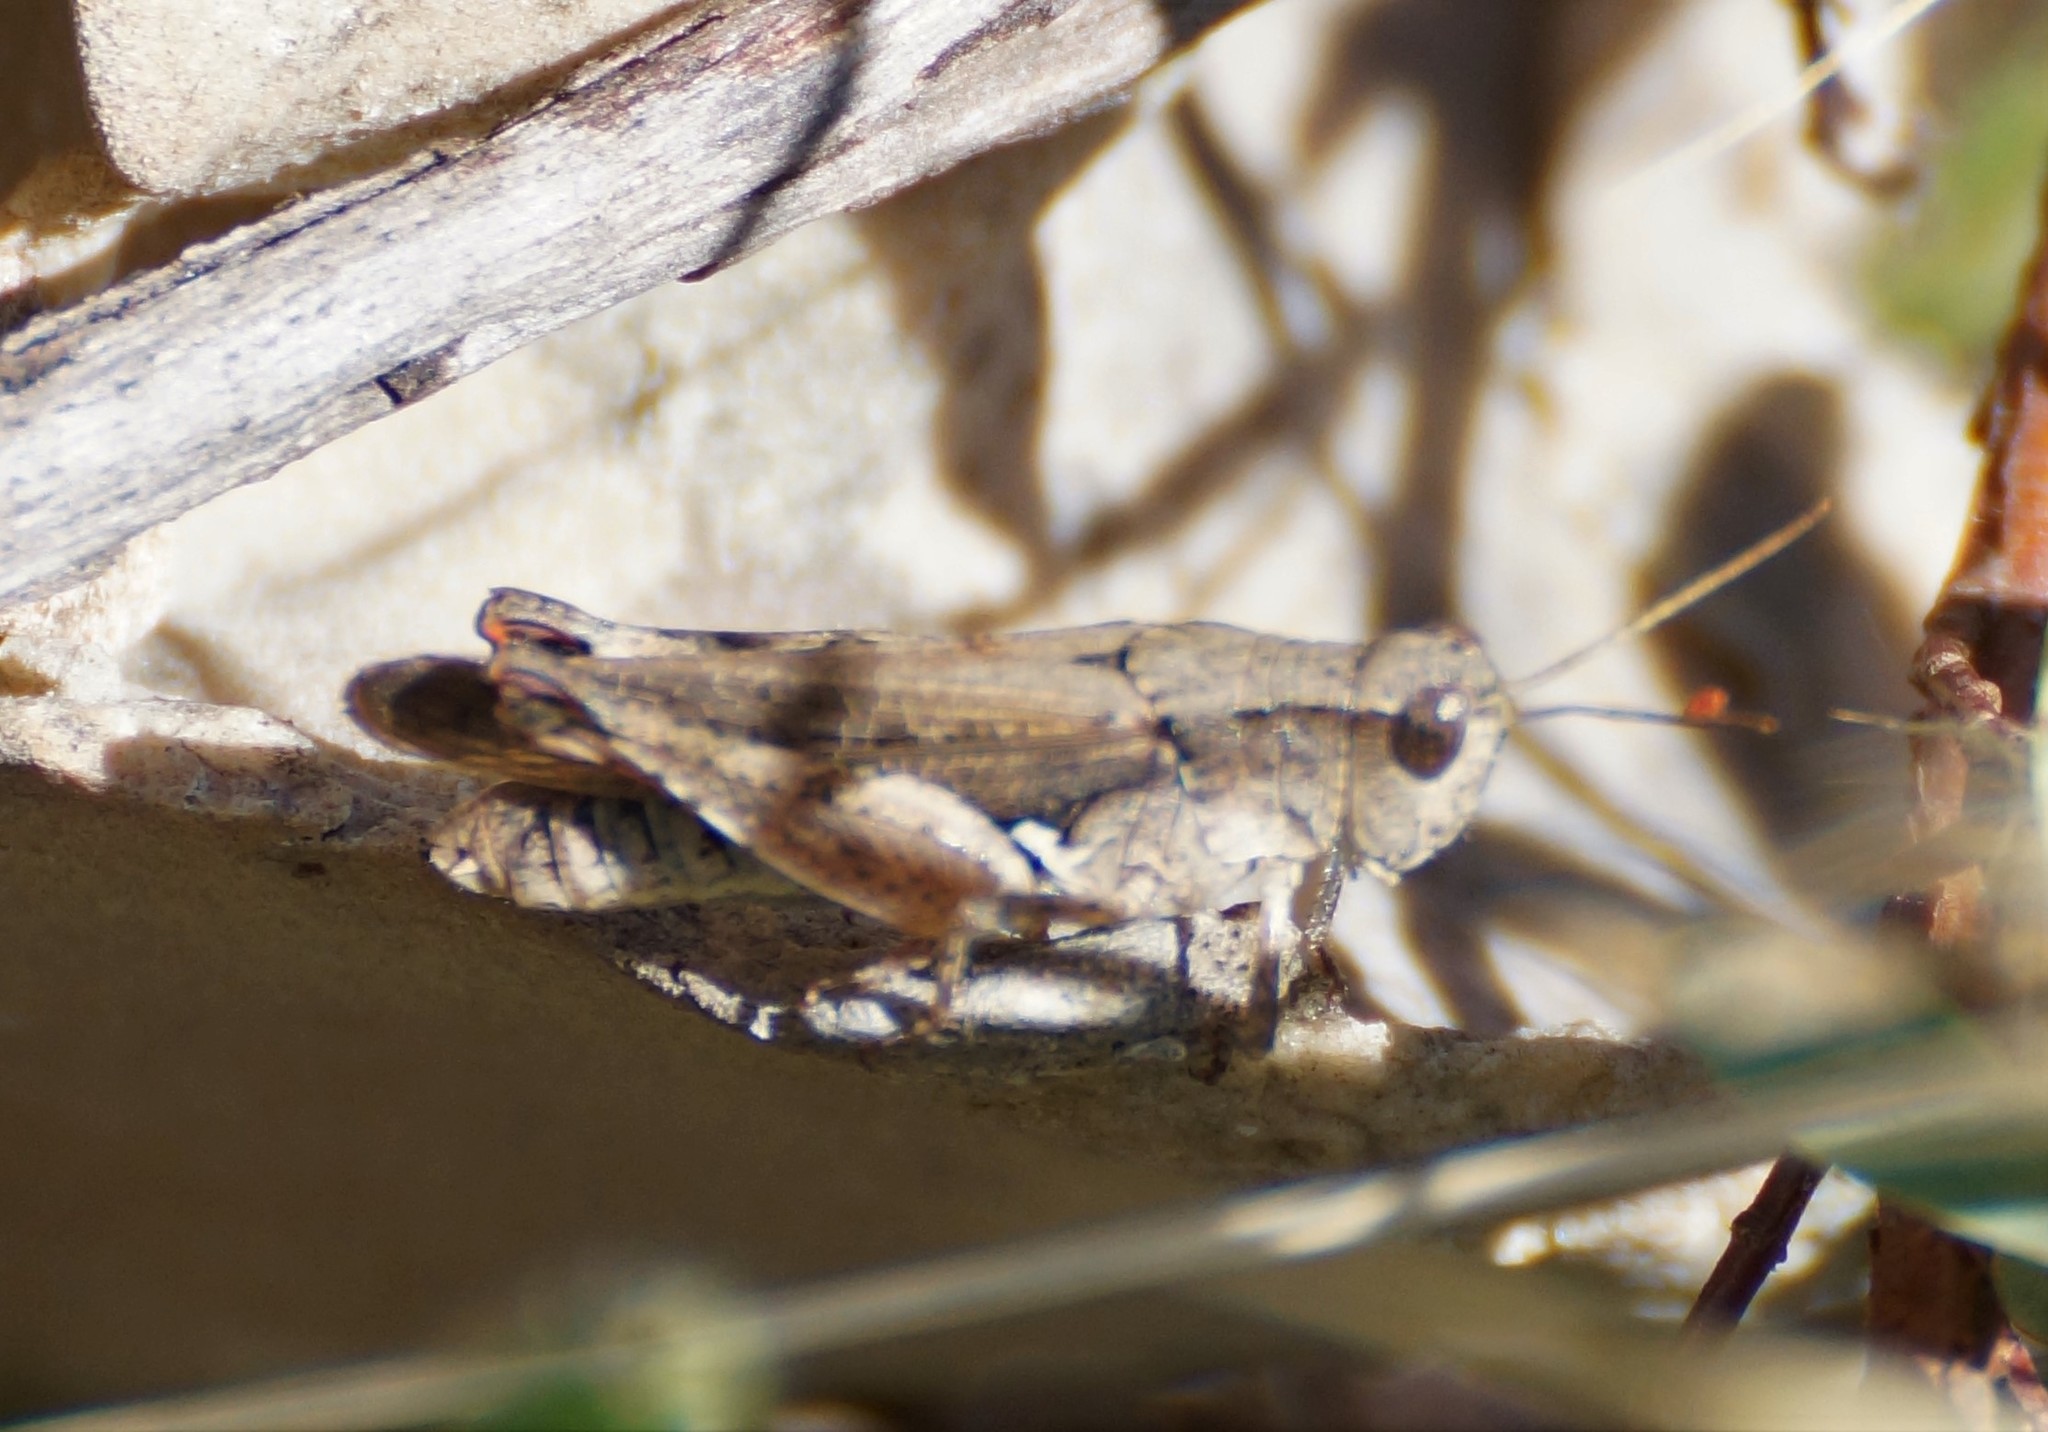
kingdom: Animalia
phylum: Arthropoda
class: Insecta
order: Orthoptera
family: Acrididae
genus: Phaulacridium
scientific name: Phaulacridium vittatum
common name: Wingless grasshopper
